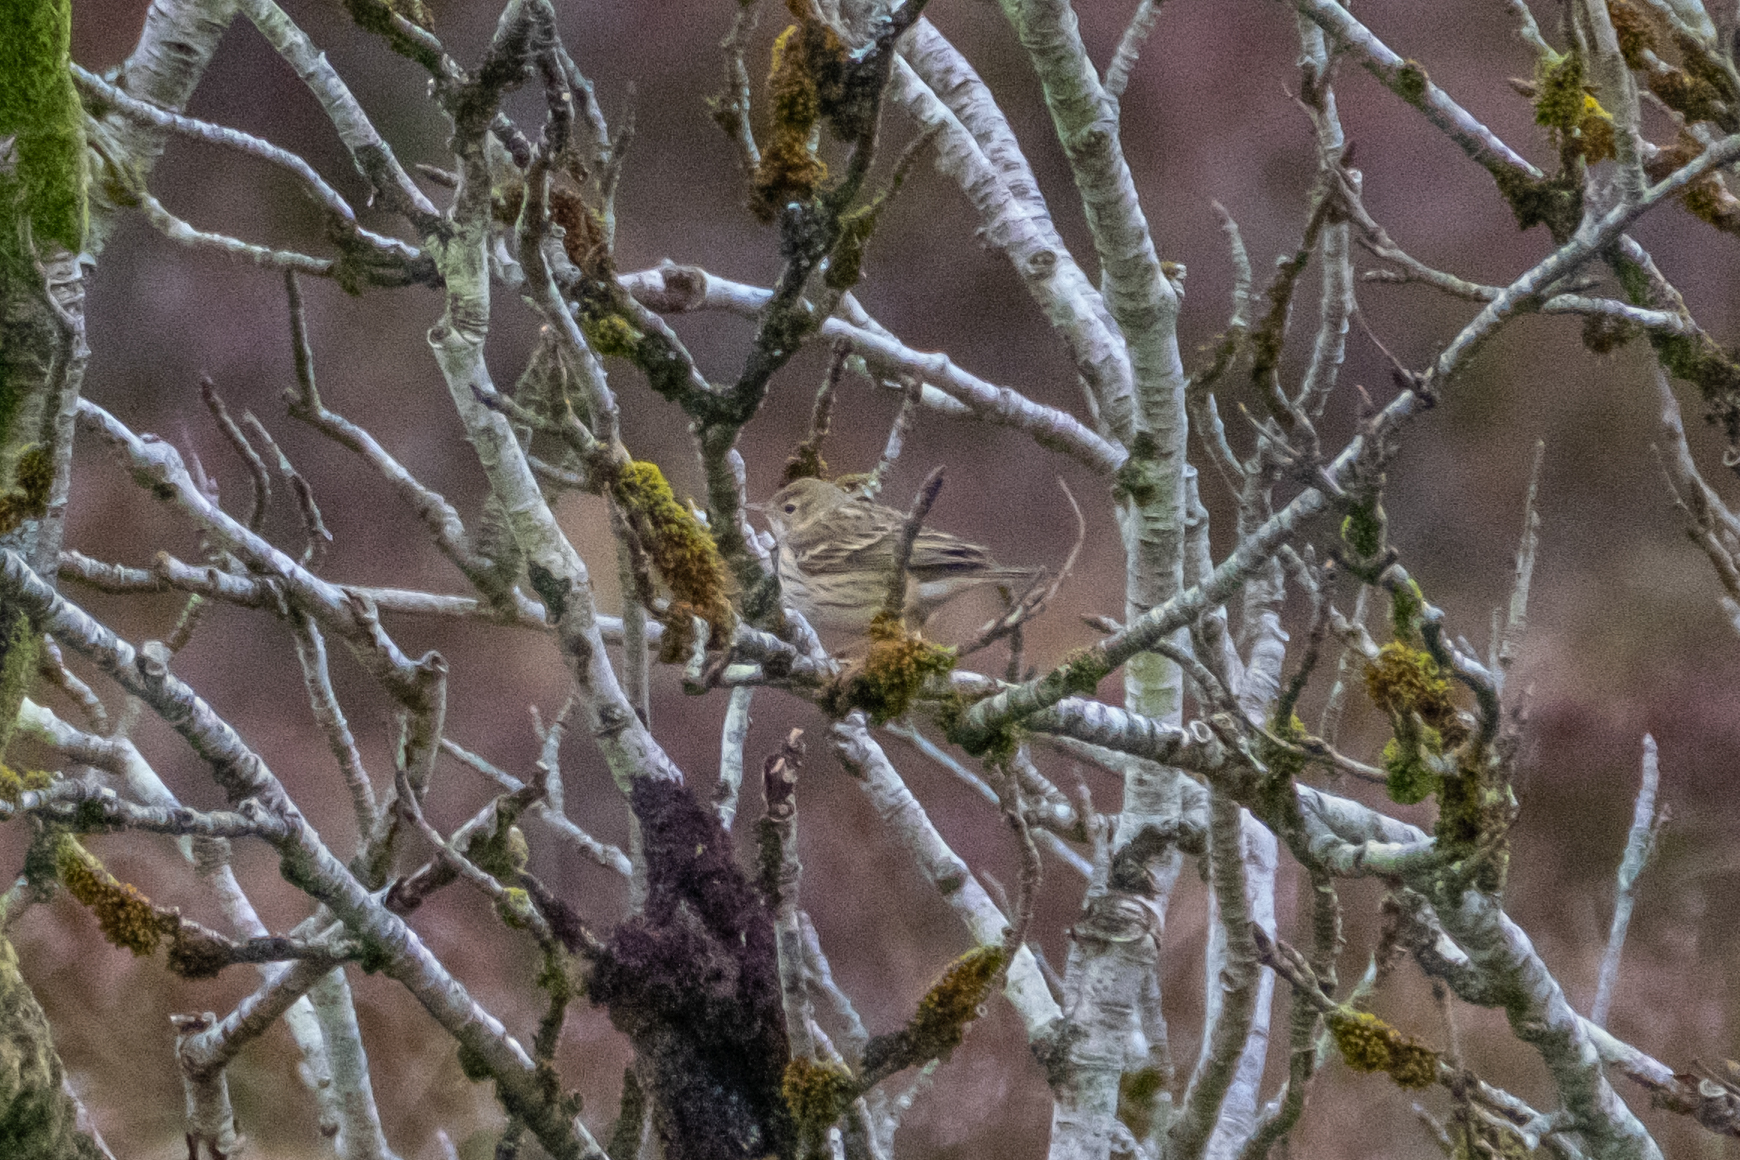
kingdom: Animalia
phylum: Chordata
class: Aves
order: Passeriformes
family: Motacillidae
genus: Anthus
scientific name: Anthus pratensis
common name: Meadow pipit
